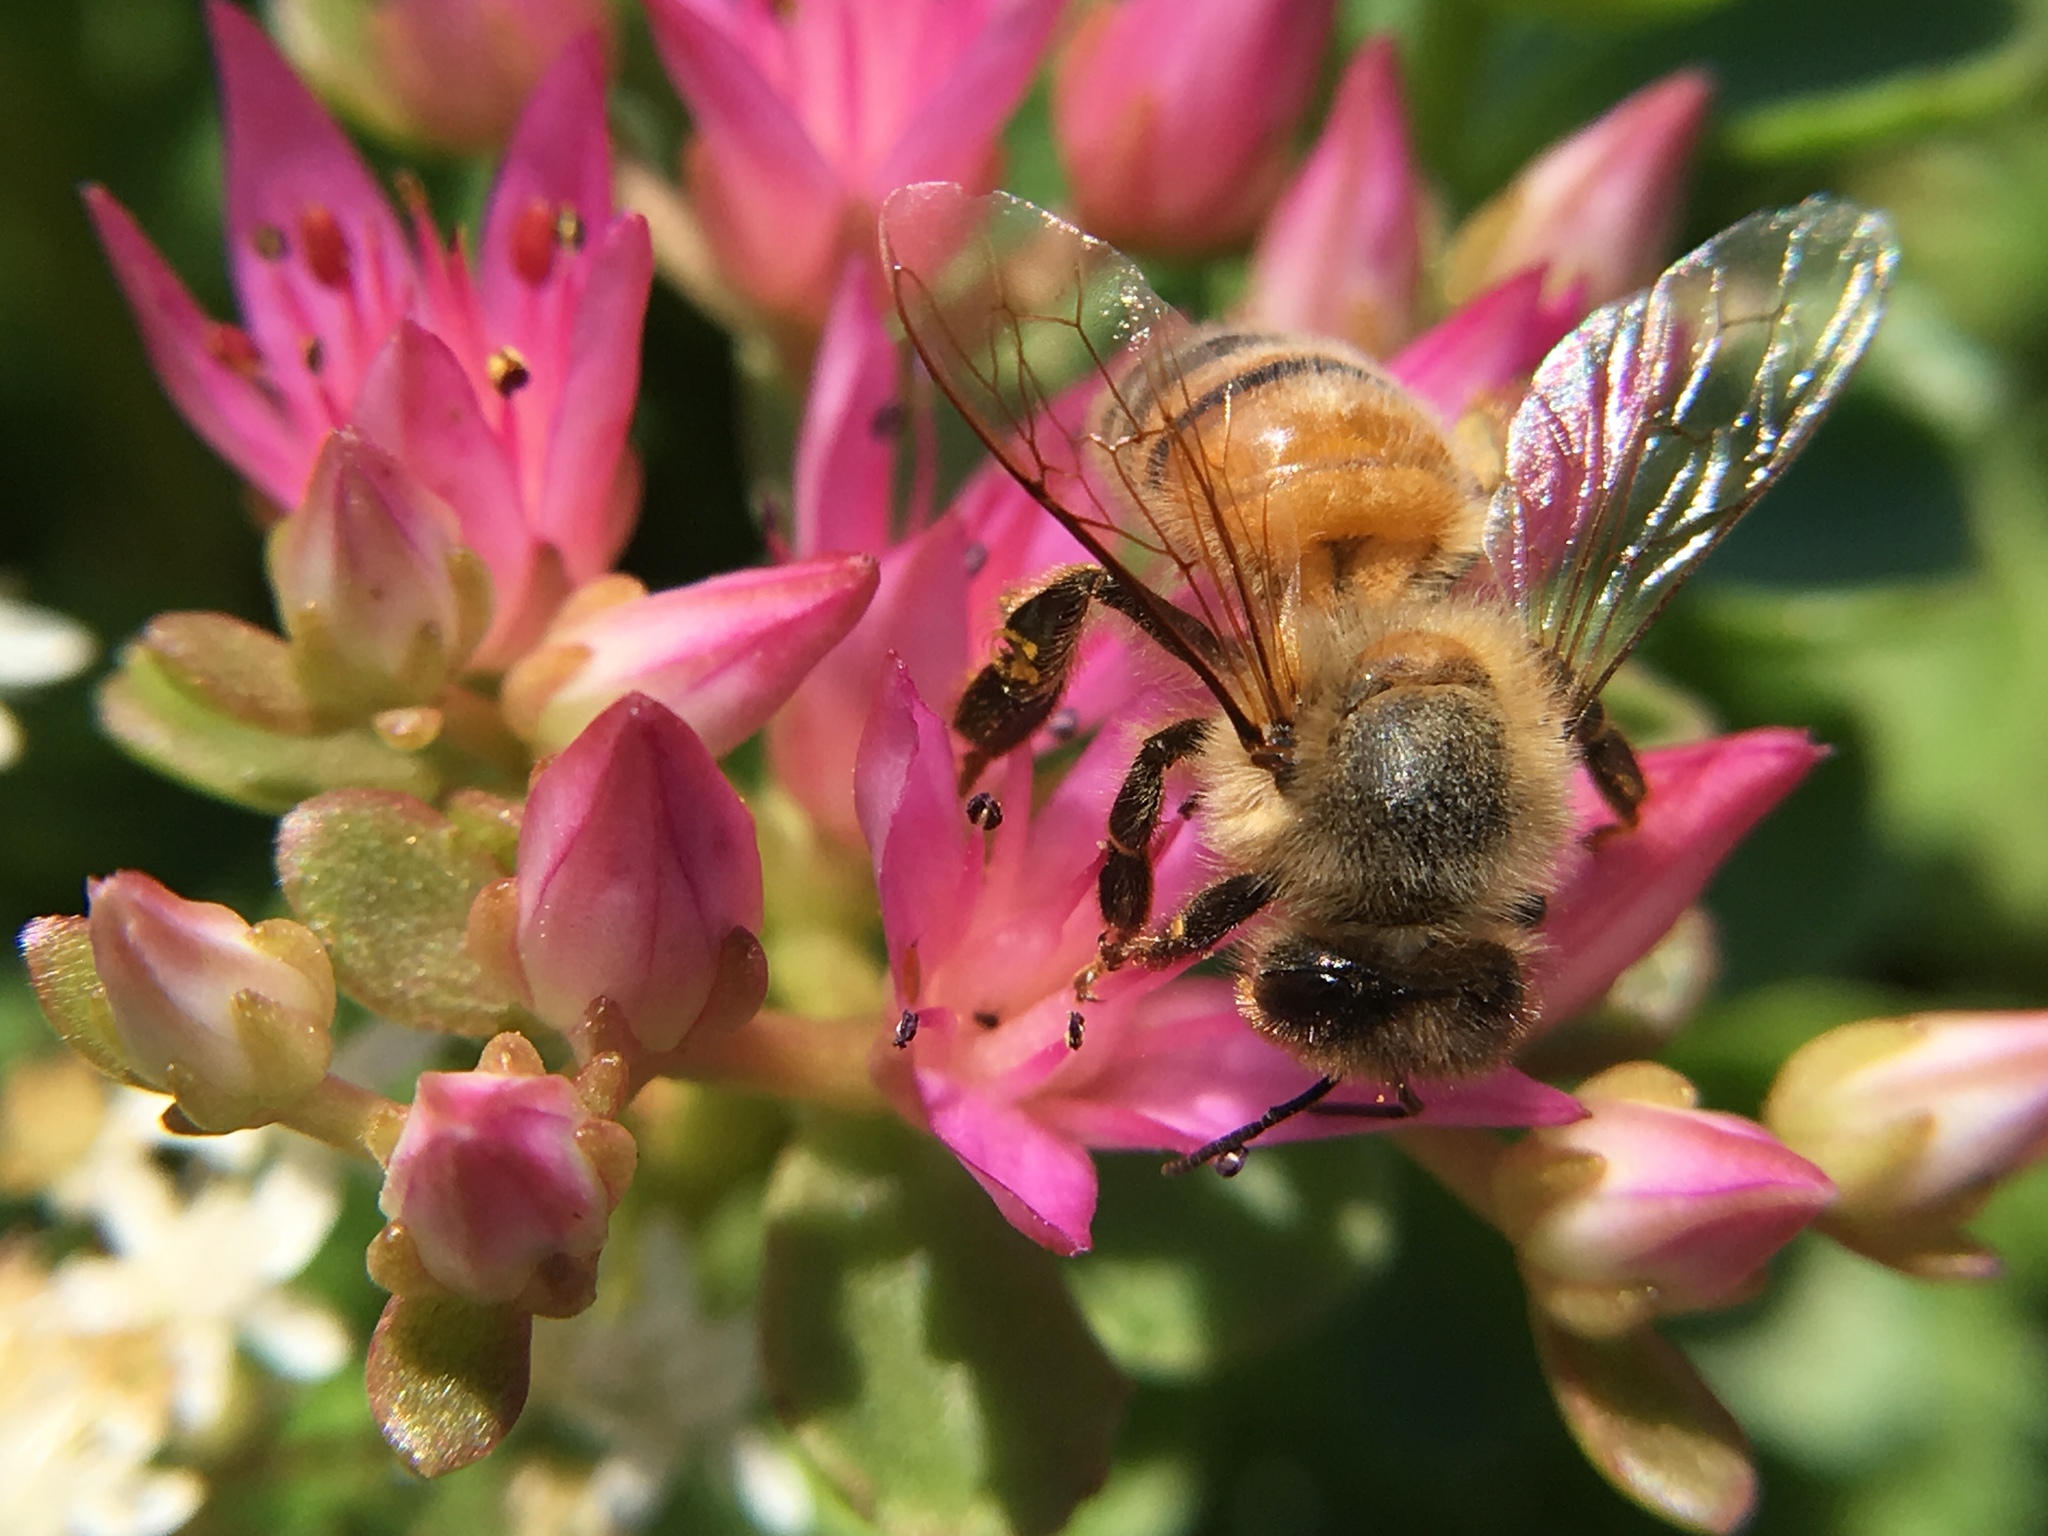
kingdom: Animalia
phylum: Arthropoda
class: Insecta
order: Hymenoptera
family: Apidae
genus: Apis
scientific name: Apis mellifera
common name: Honey bee
